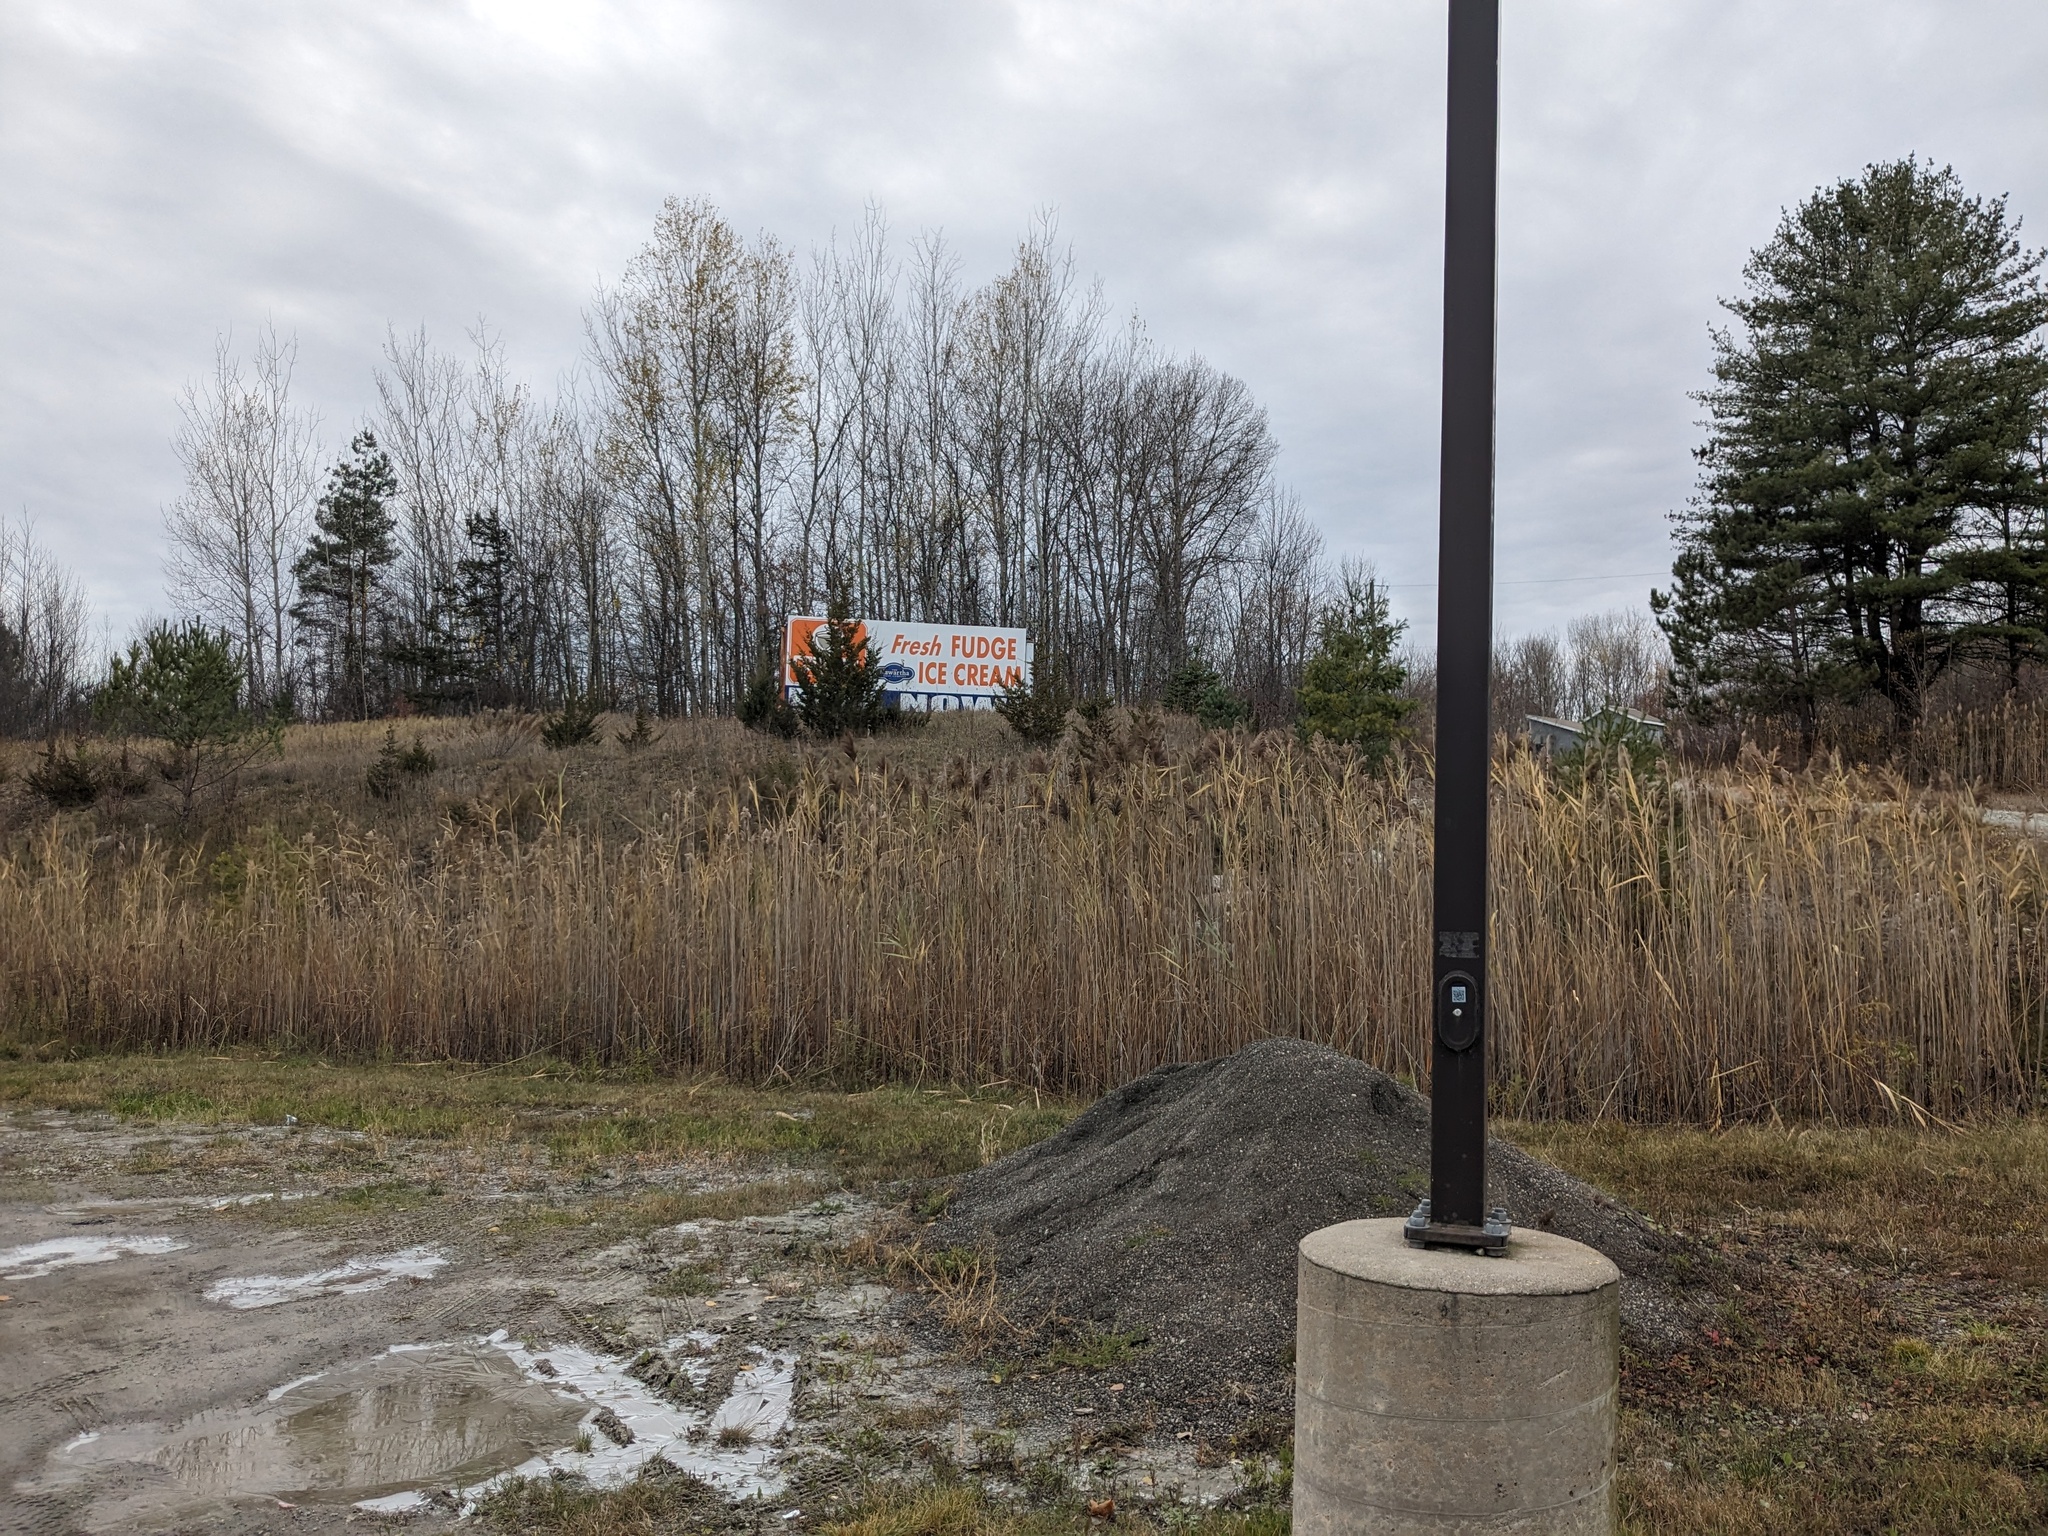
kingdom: Plantae
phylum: Tracheophyta
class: Liliopsida
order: Poales
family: Poaceae
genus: Phragmites
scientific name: Phragmites australis
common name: Common reed
